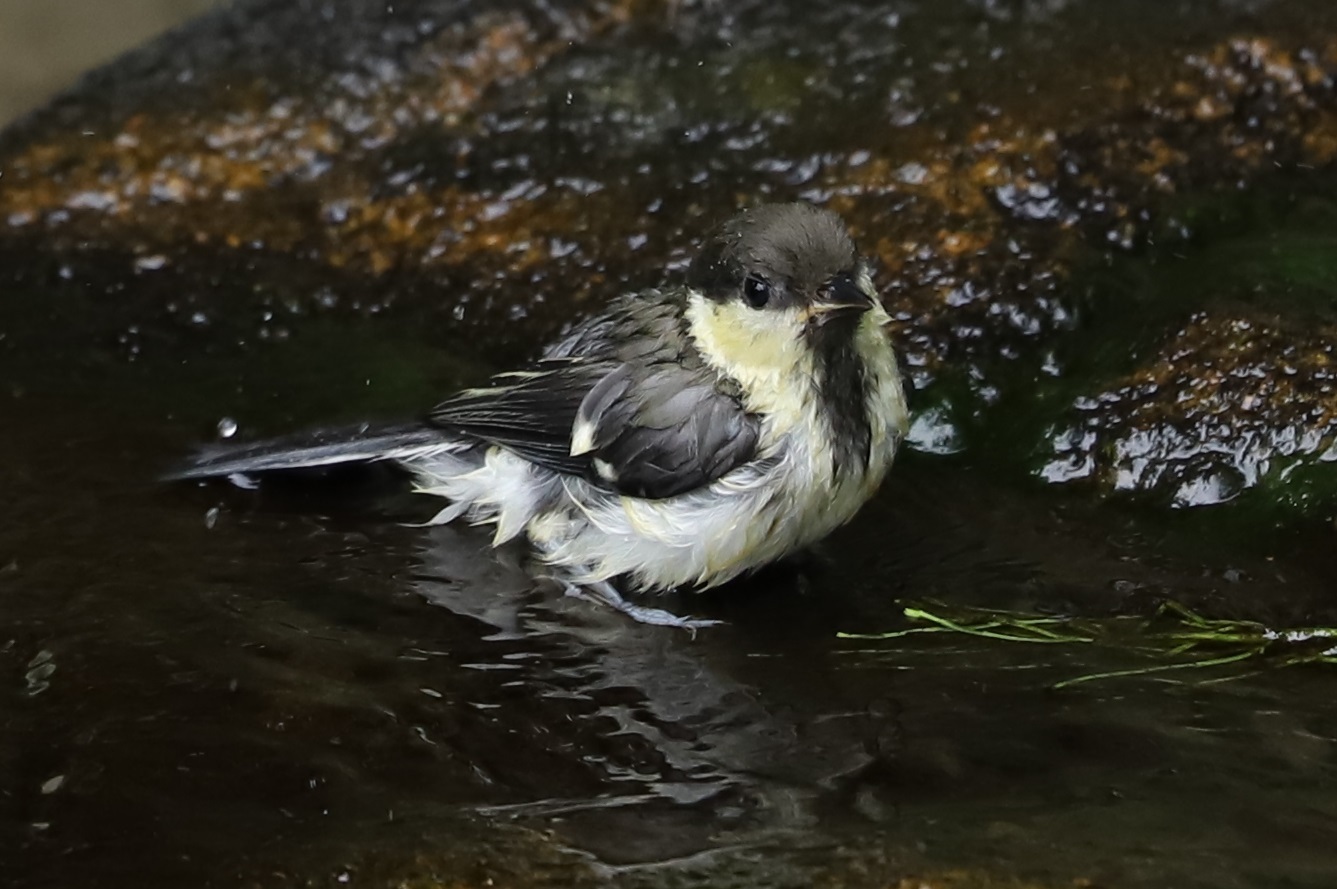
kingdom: Animalia
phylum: Chordata
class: Aves
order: Passeriformes
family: Paridae
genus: Parus
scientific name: Parus minor
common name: Japanese tit
